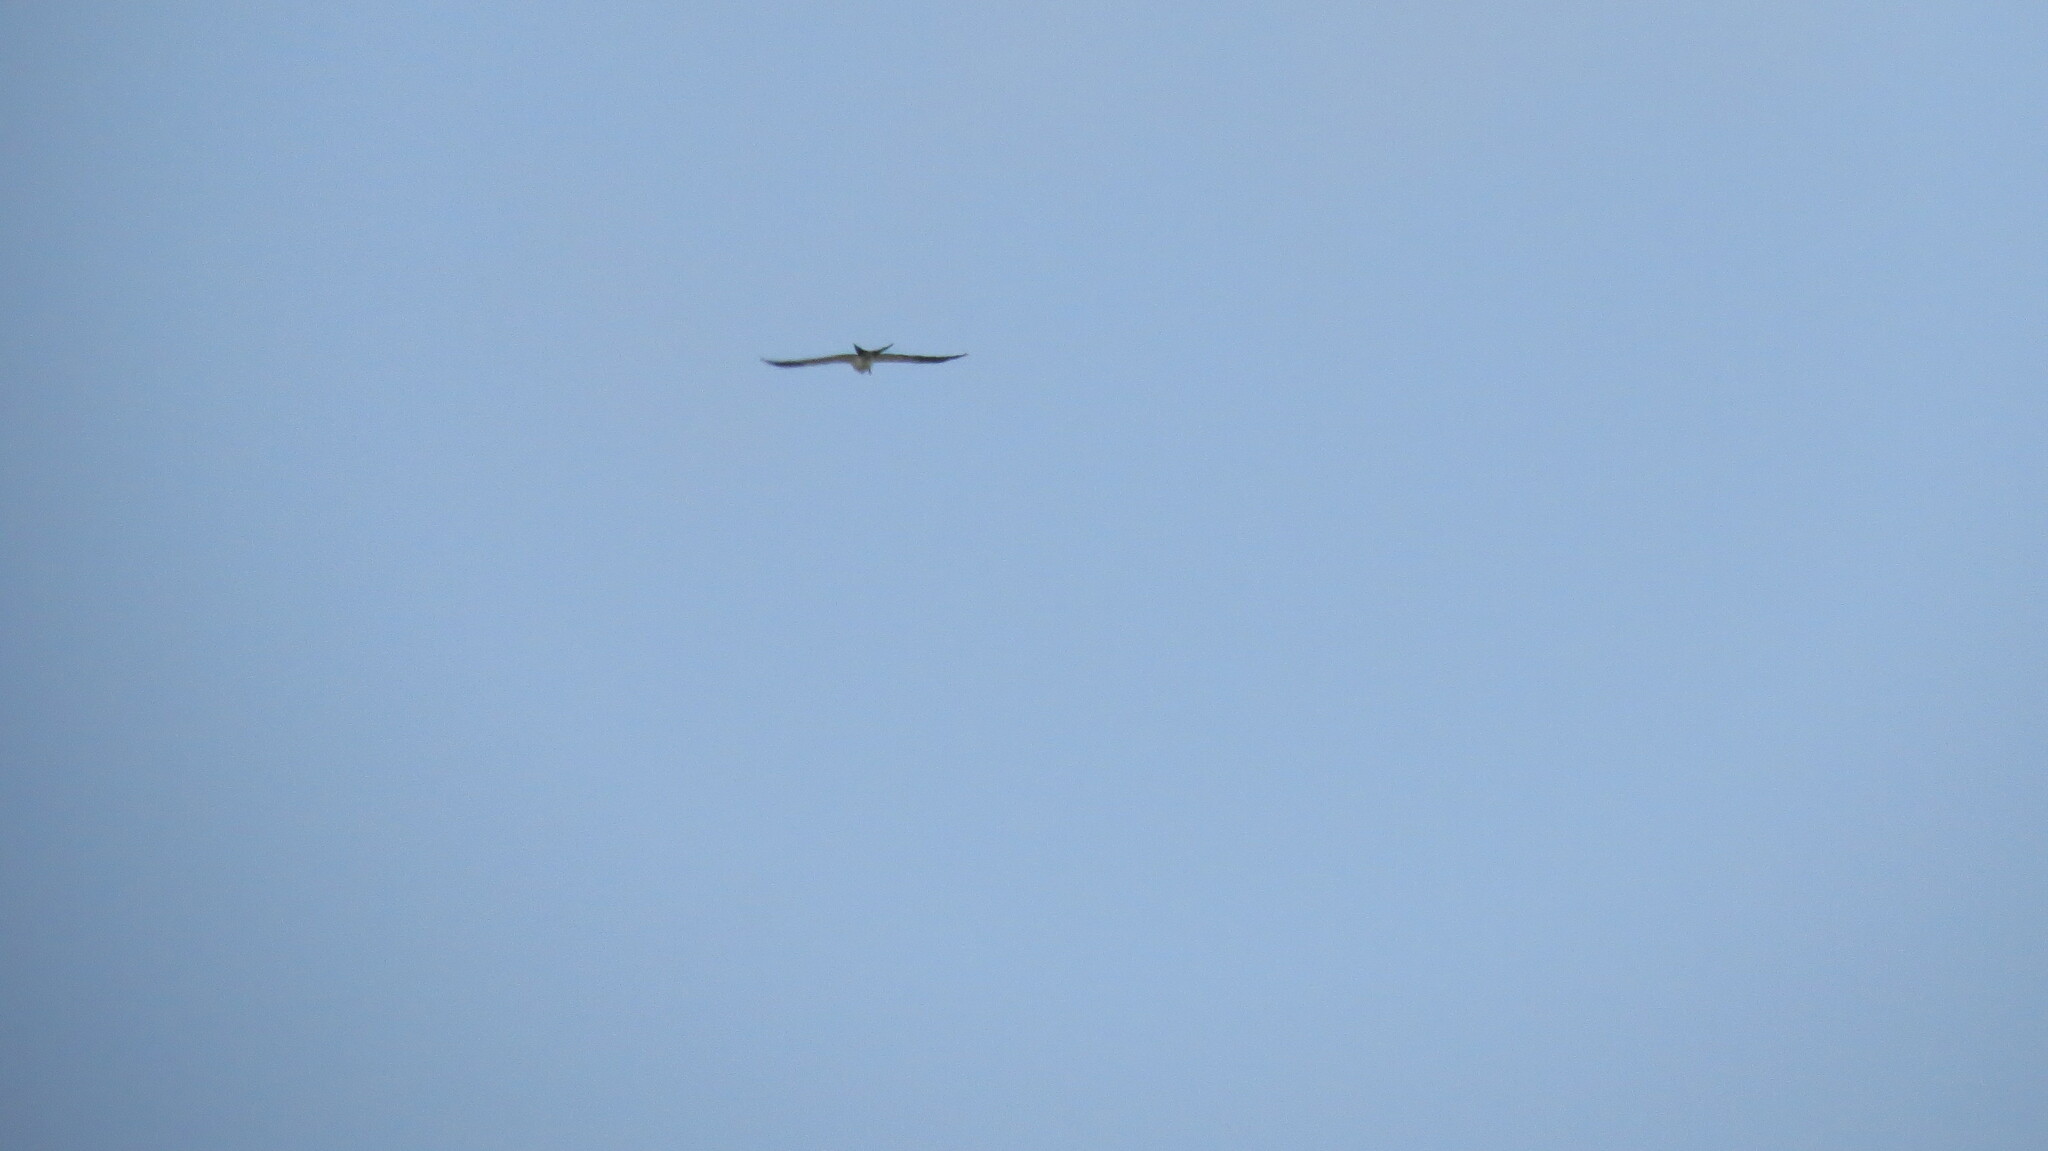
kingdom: Animalia
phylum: Chordata
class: Aves
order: Accipitriformes
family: Accipitridae
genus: Elanoides
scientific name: Elanoides forficatus
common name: Swallow-tailed kite
